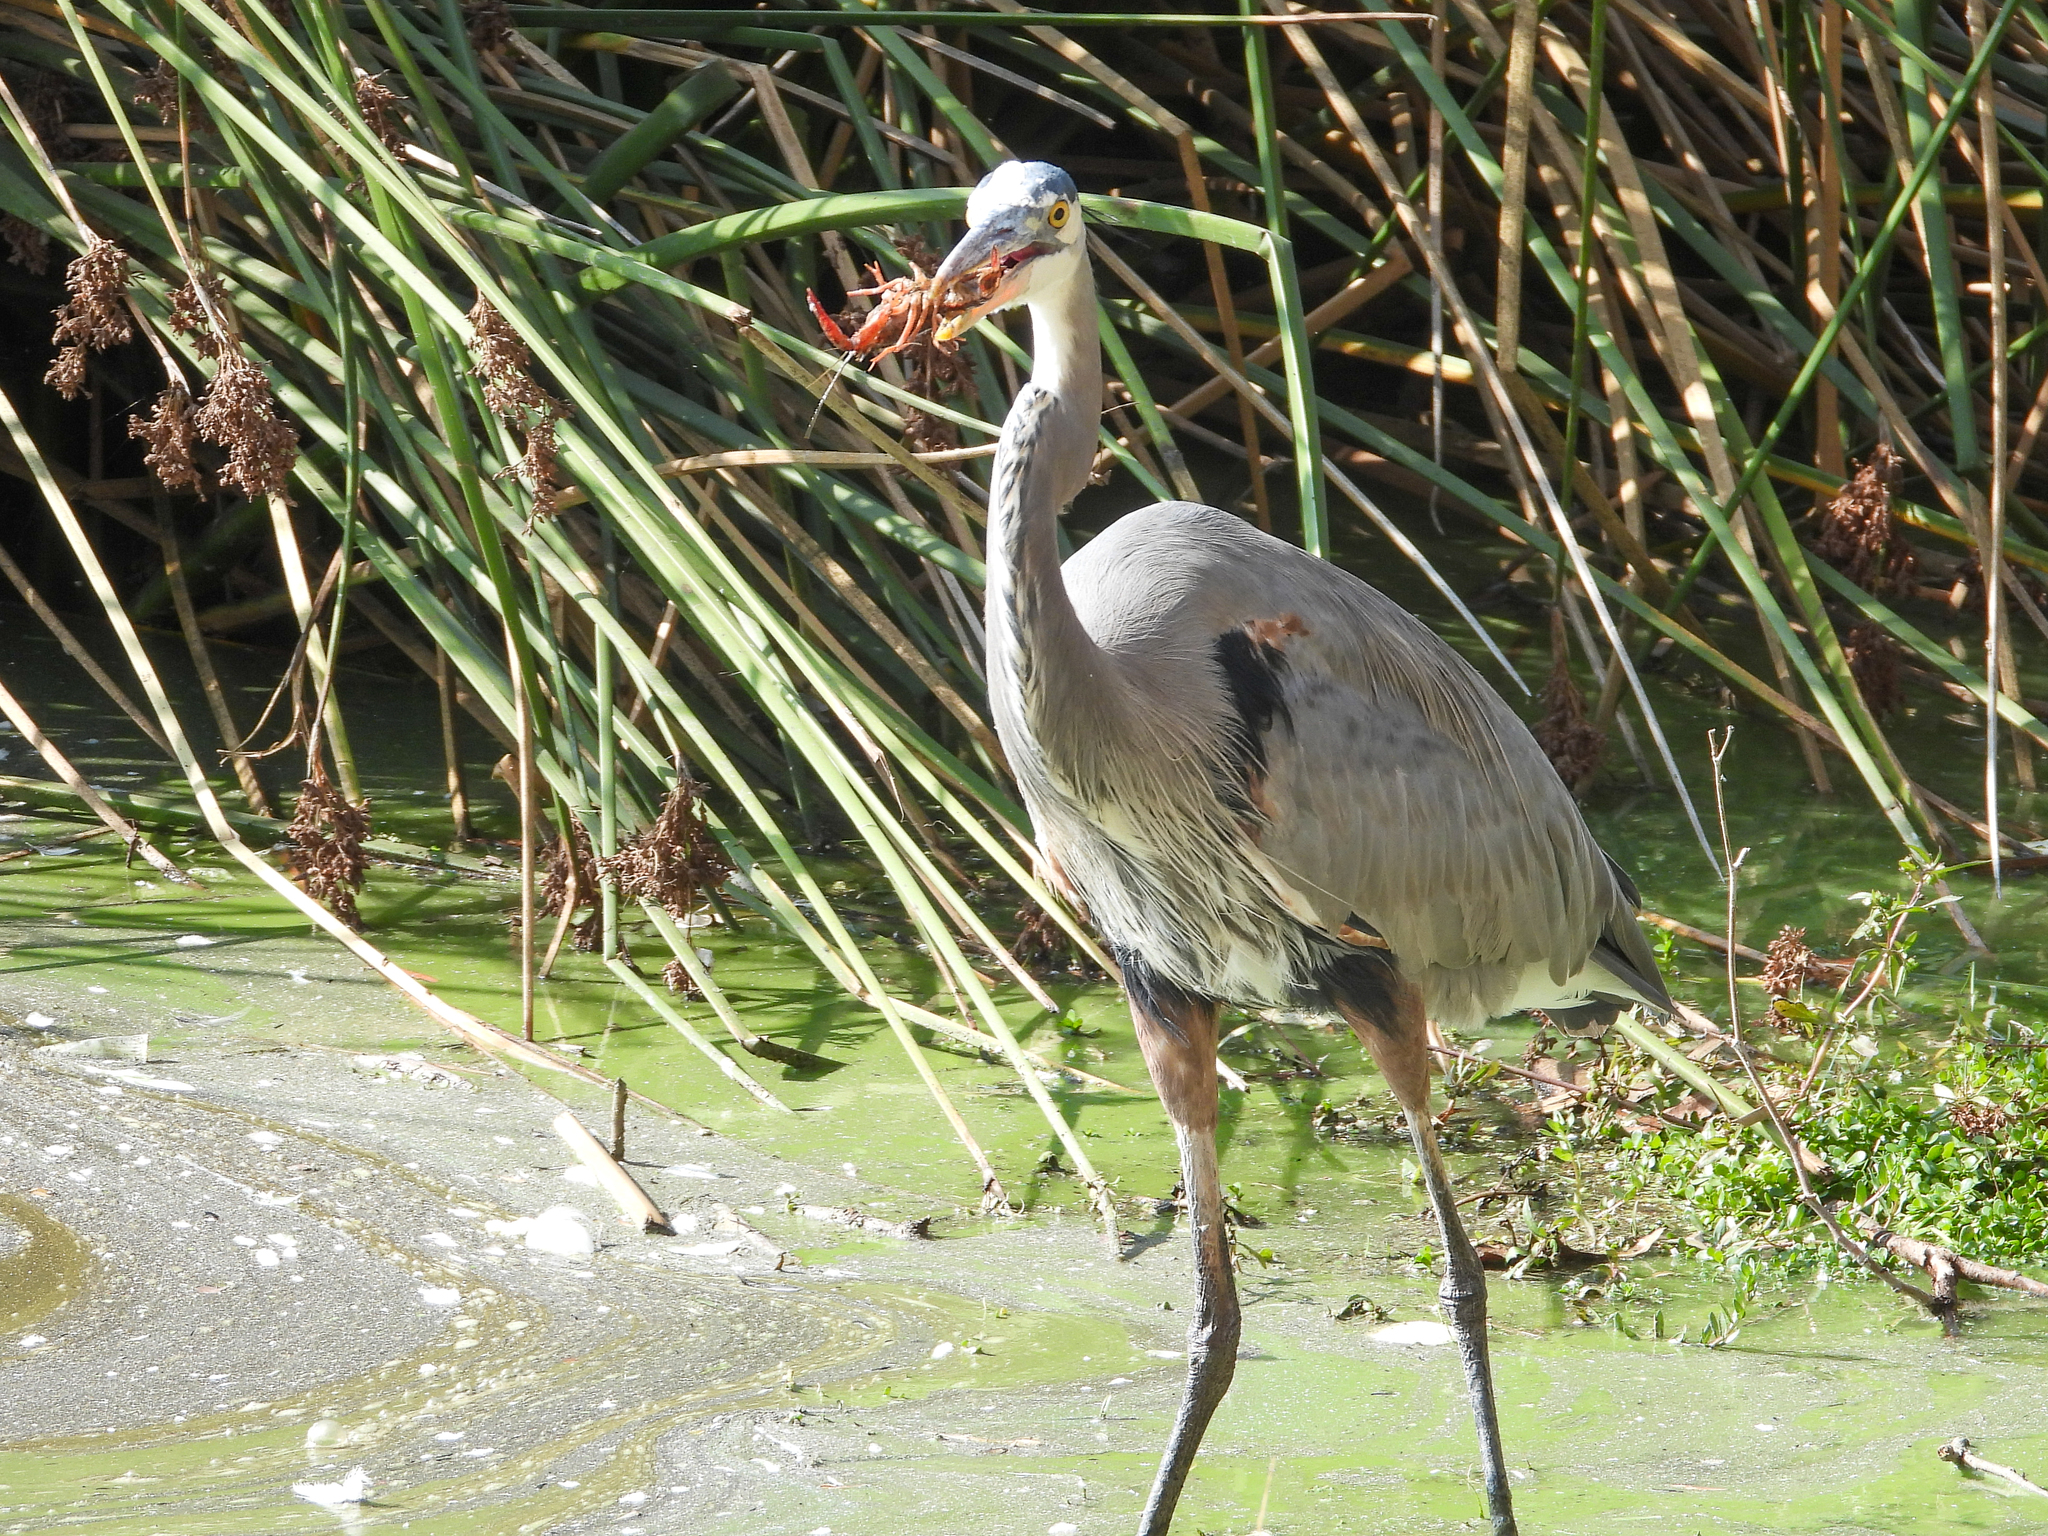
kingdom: Animalia
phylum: Chordata
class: Aves
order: Pelecaniformes
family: Ardeidae
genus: Ardea
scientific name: Ardea herodias
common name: Great blue heron
